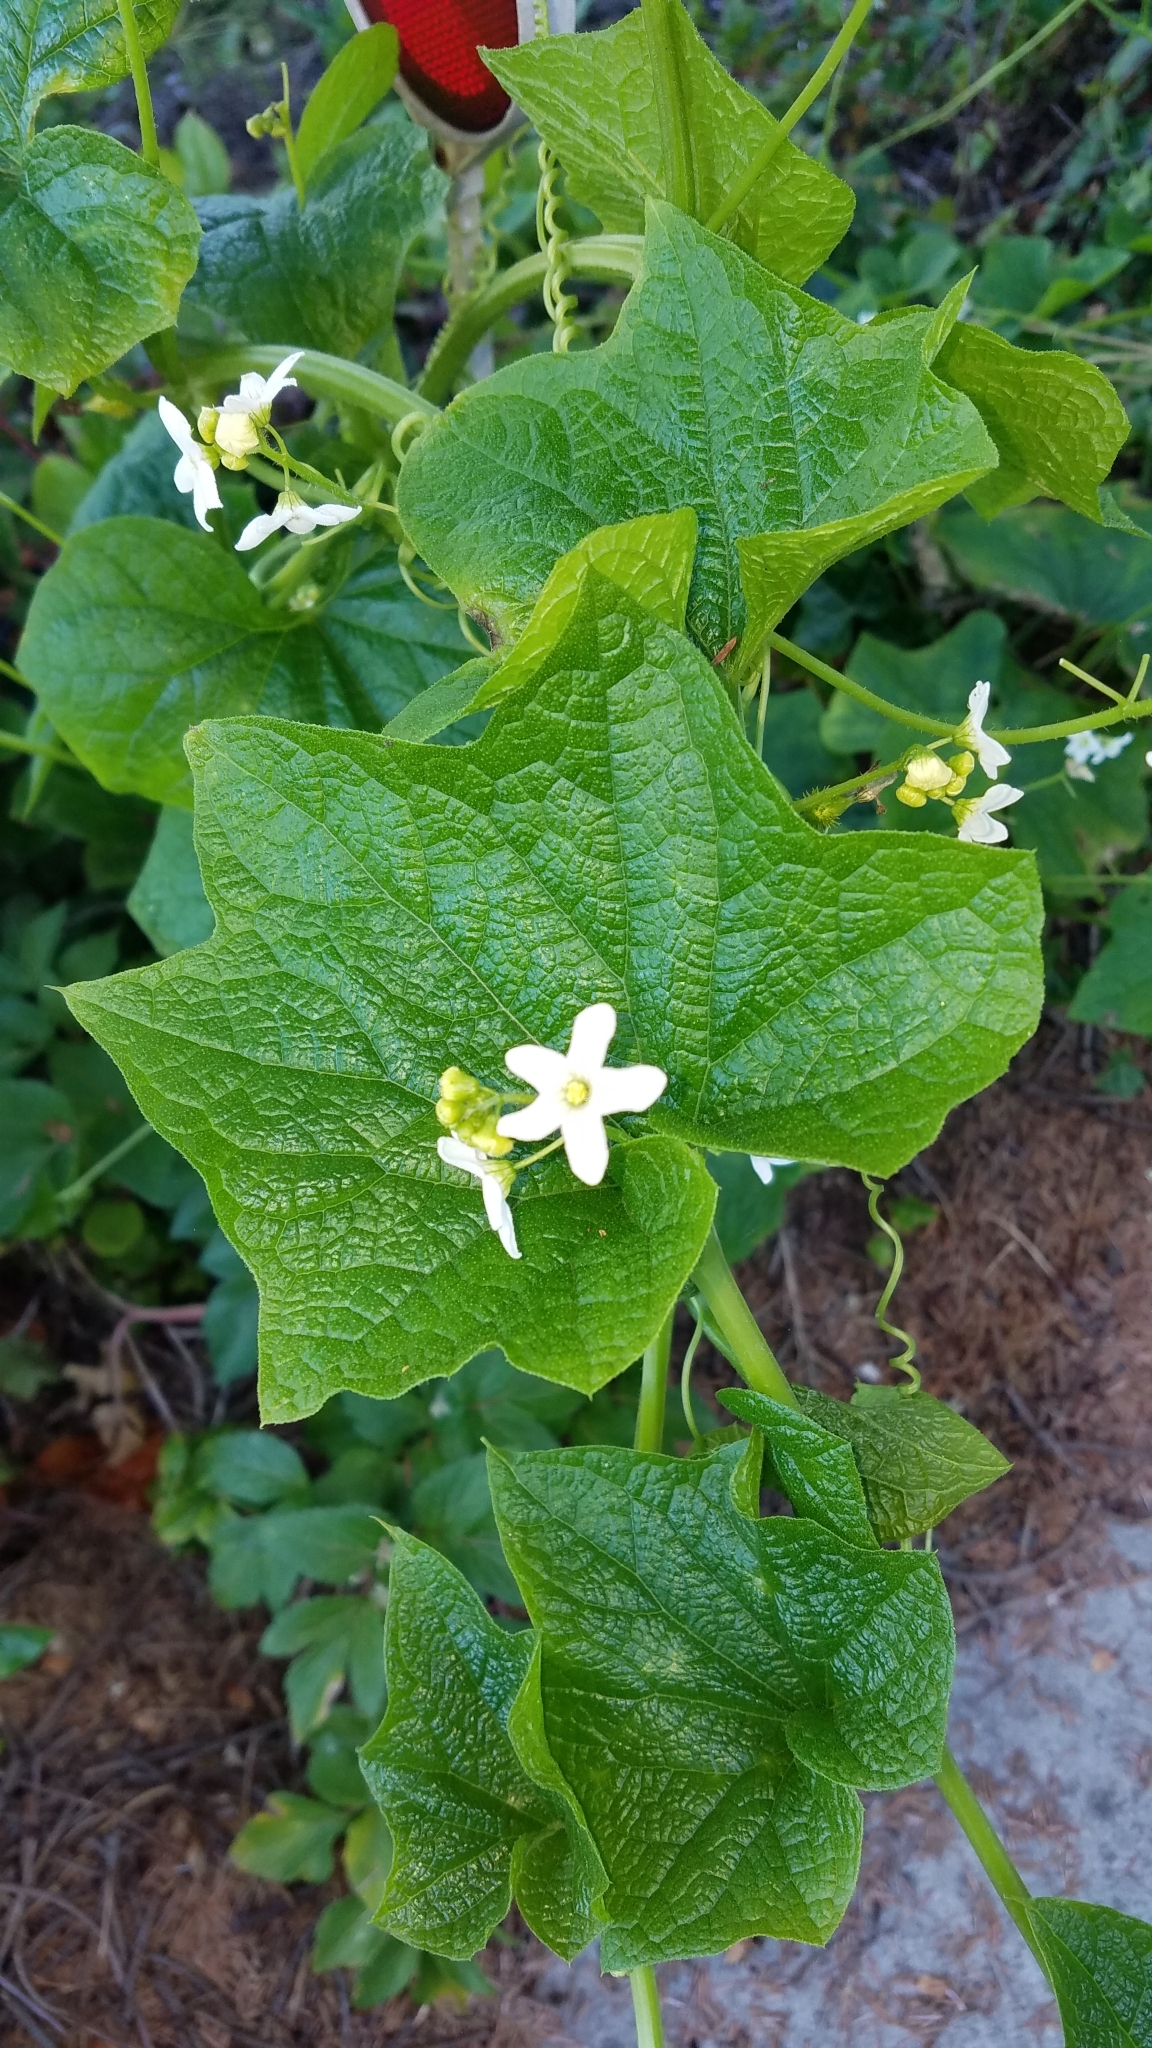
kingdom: Plantae
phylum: Tracheophyta
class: Magnoliopsida
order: Cucurbitales
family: Cucurbitaceae
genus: Marah
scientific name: Marah oregana
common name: Coastal manroot
